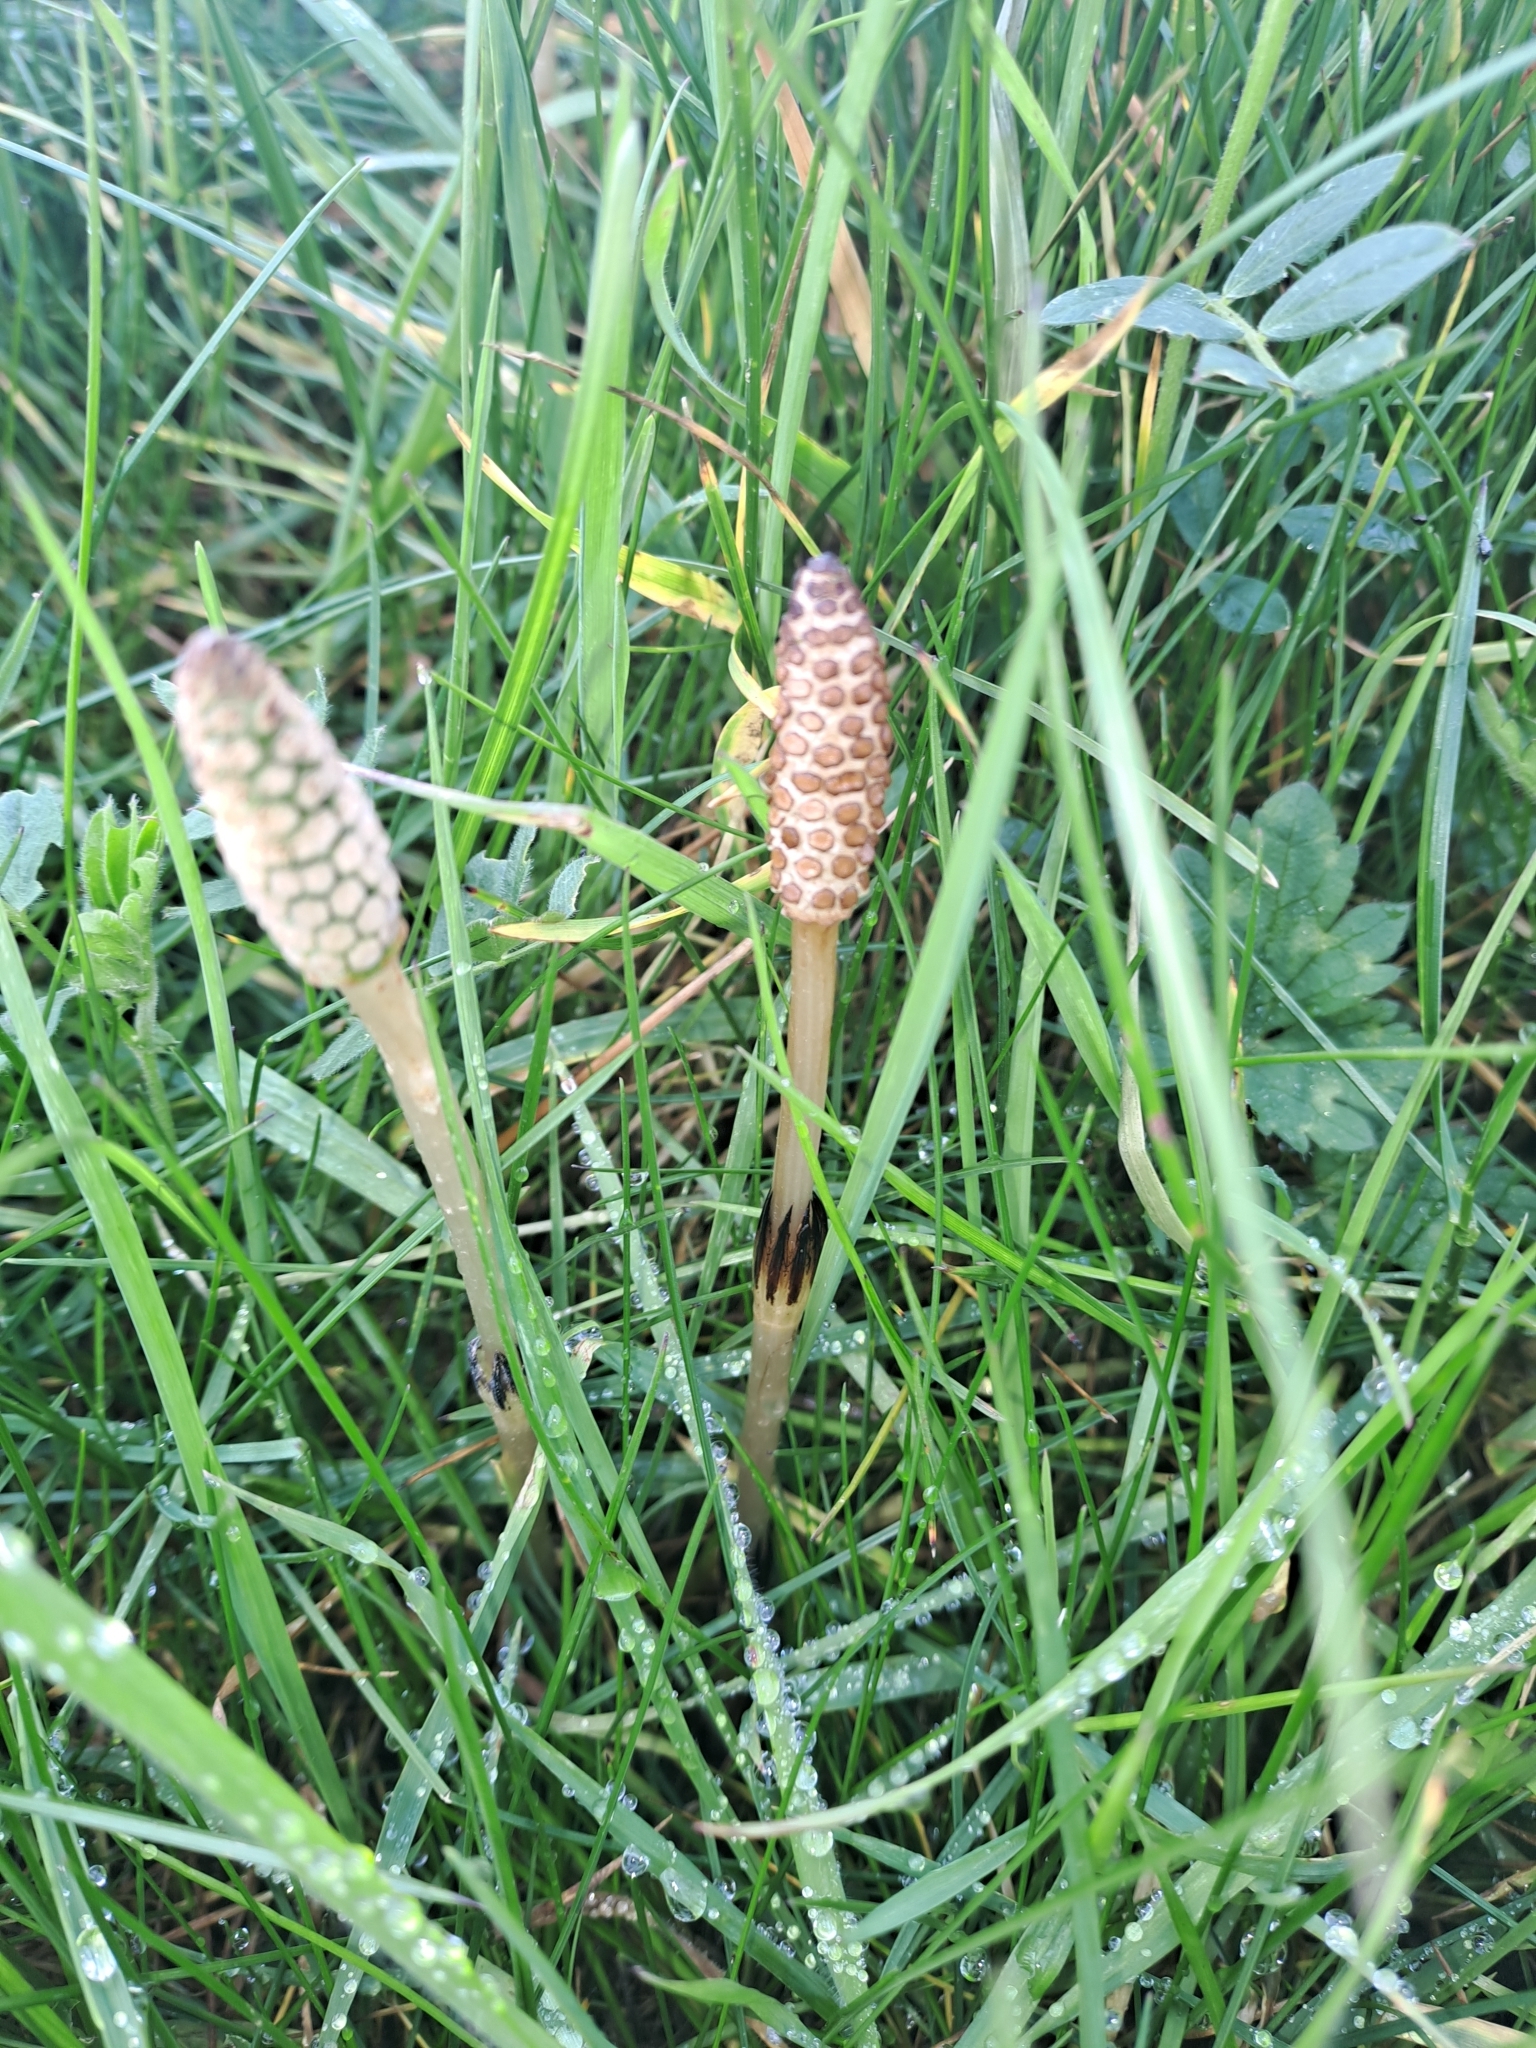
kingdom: Plantae
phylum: Tracheophyta
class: Polypodiopsida
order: Equisetales
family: Equisetaceae
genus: Equisetum
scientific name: Equisetum arvense
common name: Field horsetail
